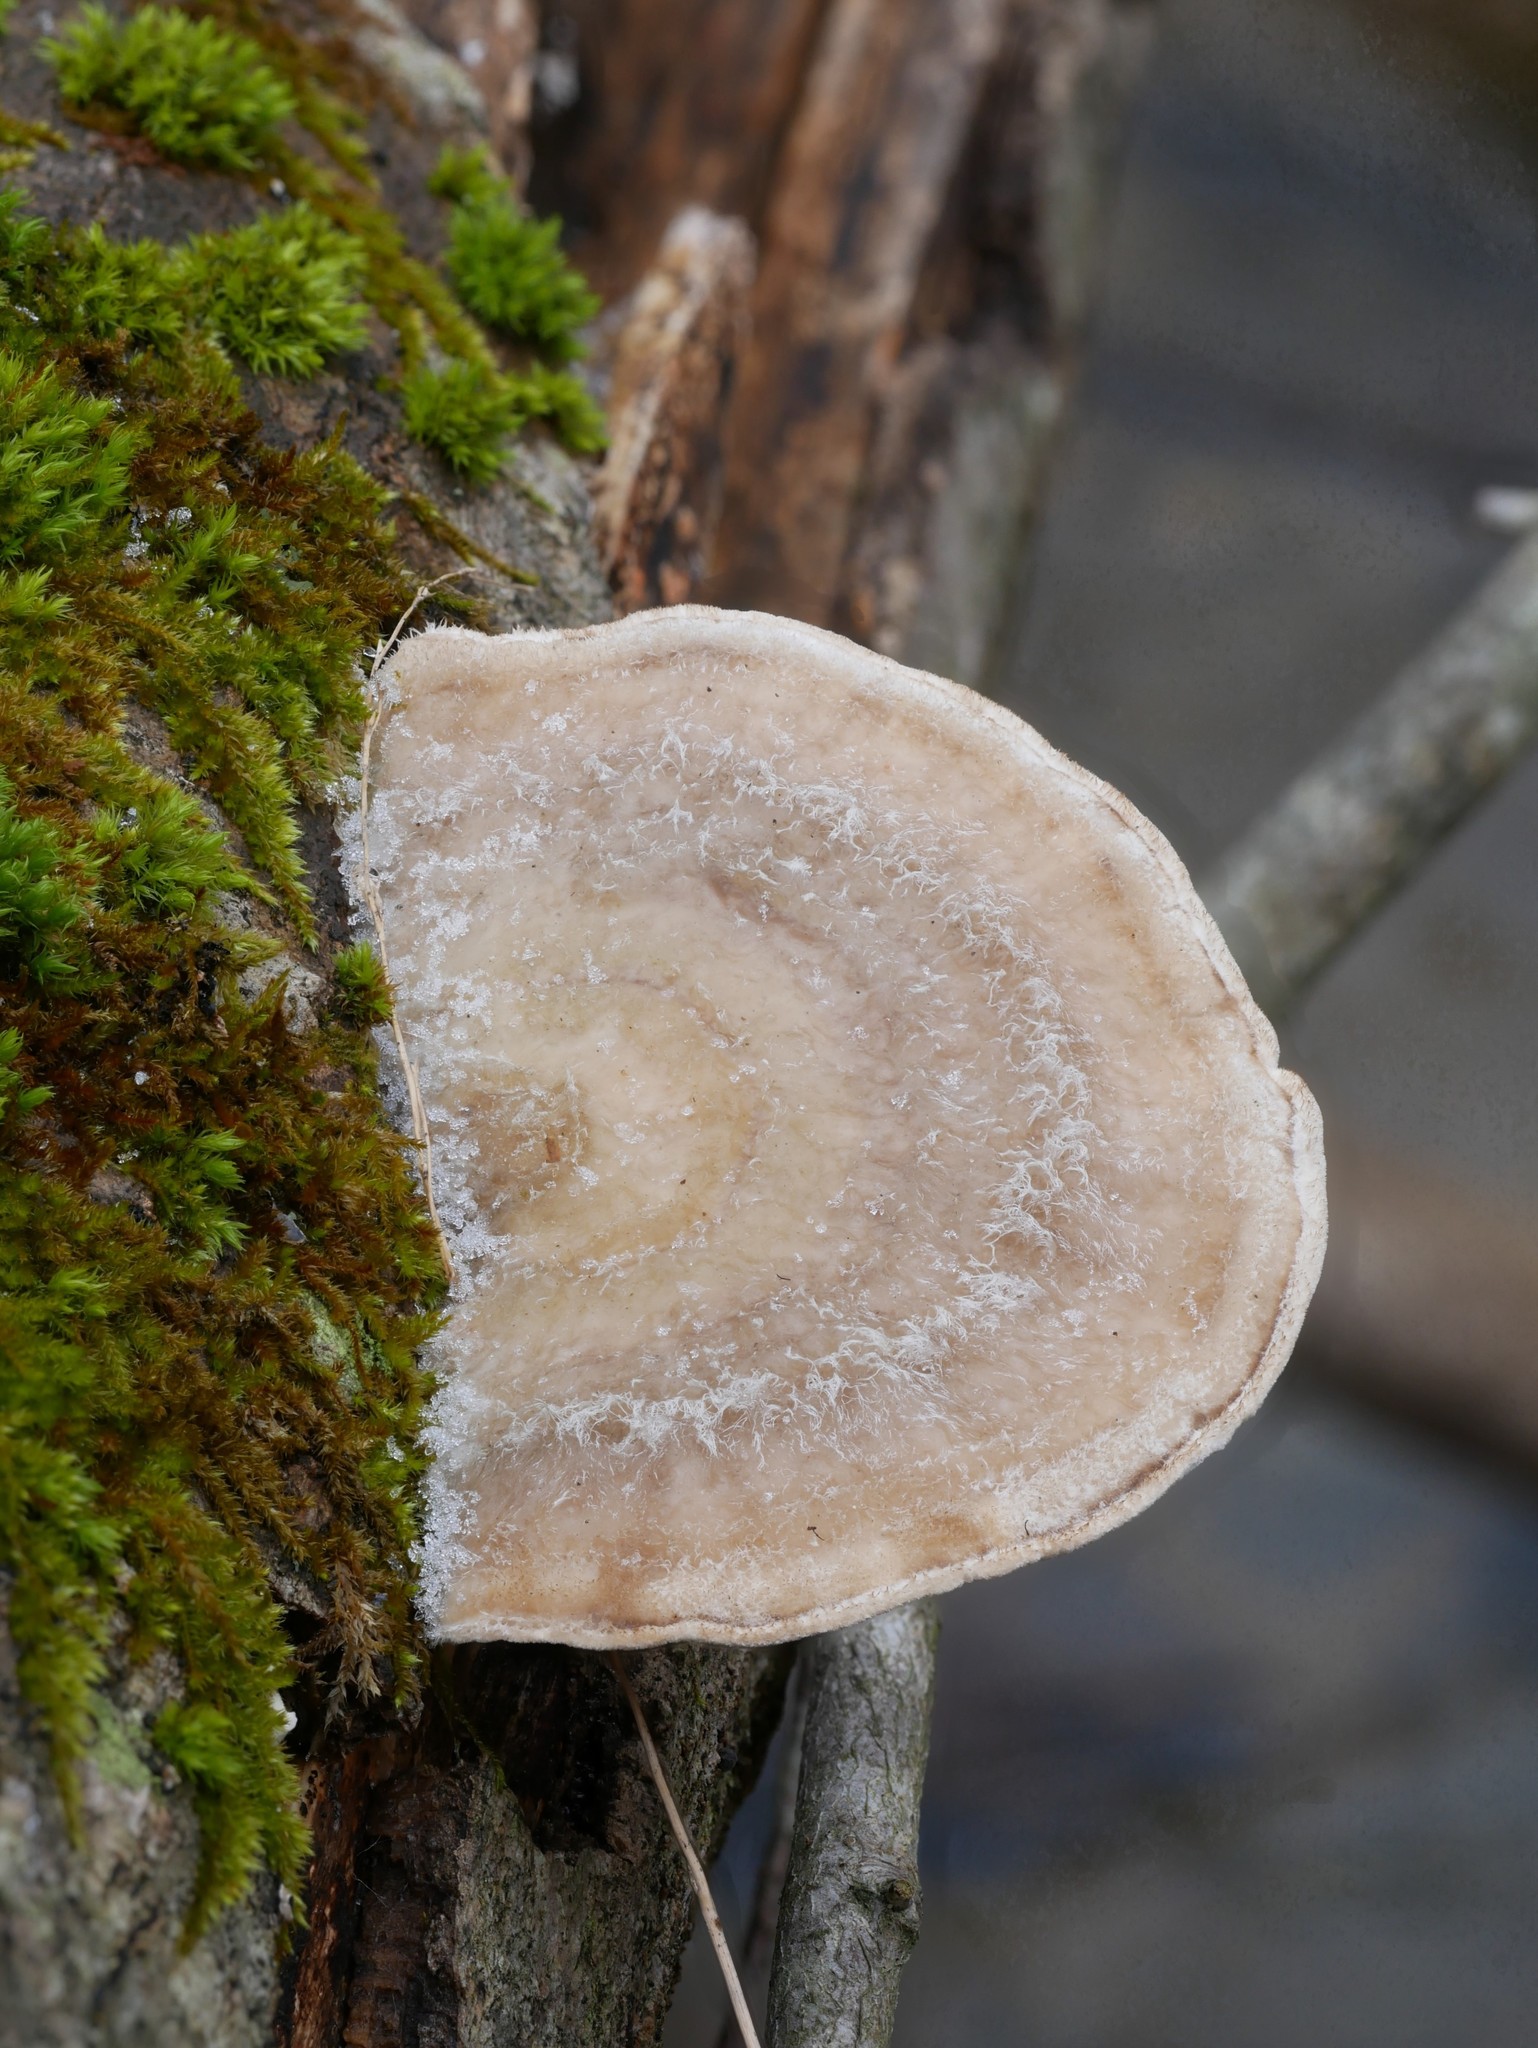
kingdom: Fungi
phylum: Basidiomycota
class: Agaricomycetes
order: Polyporales
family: Polyporaceae
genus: Trametes
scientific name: Trametes hirsuta
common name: Hairy bracket
